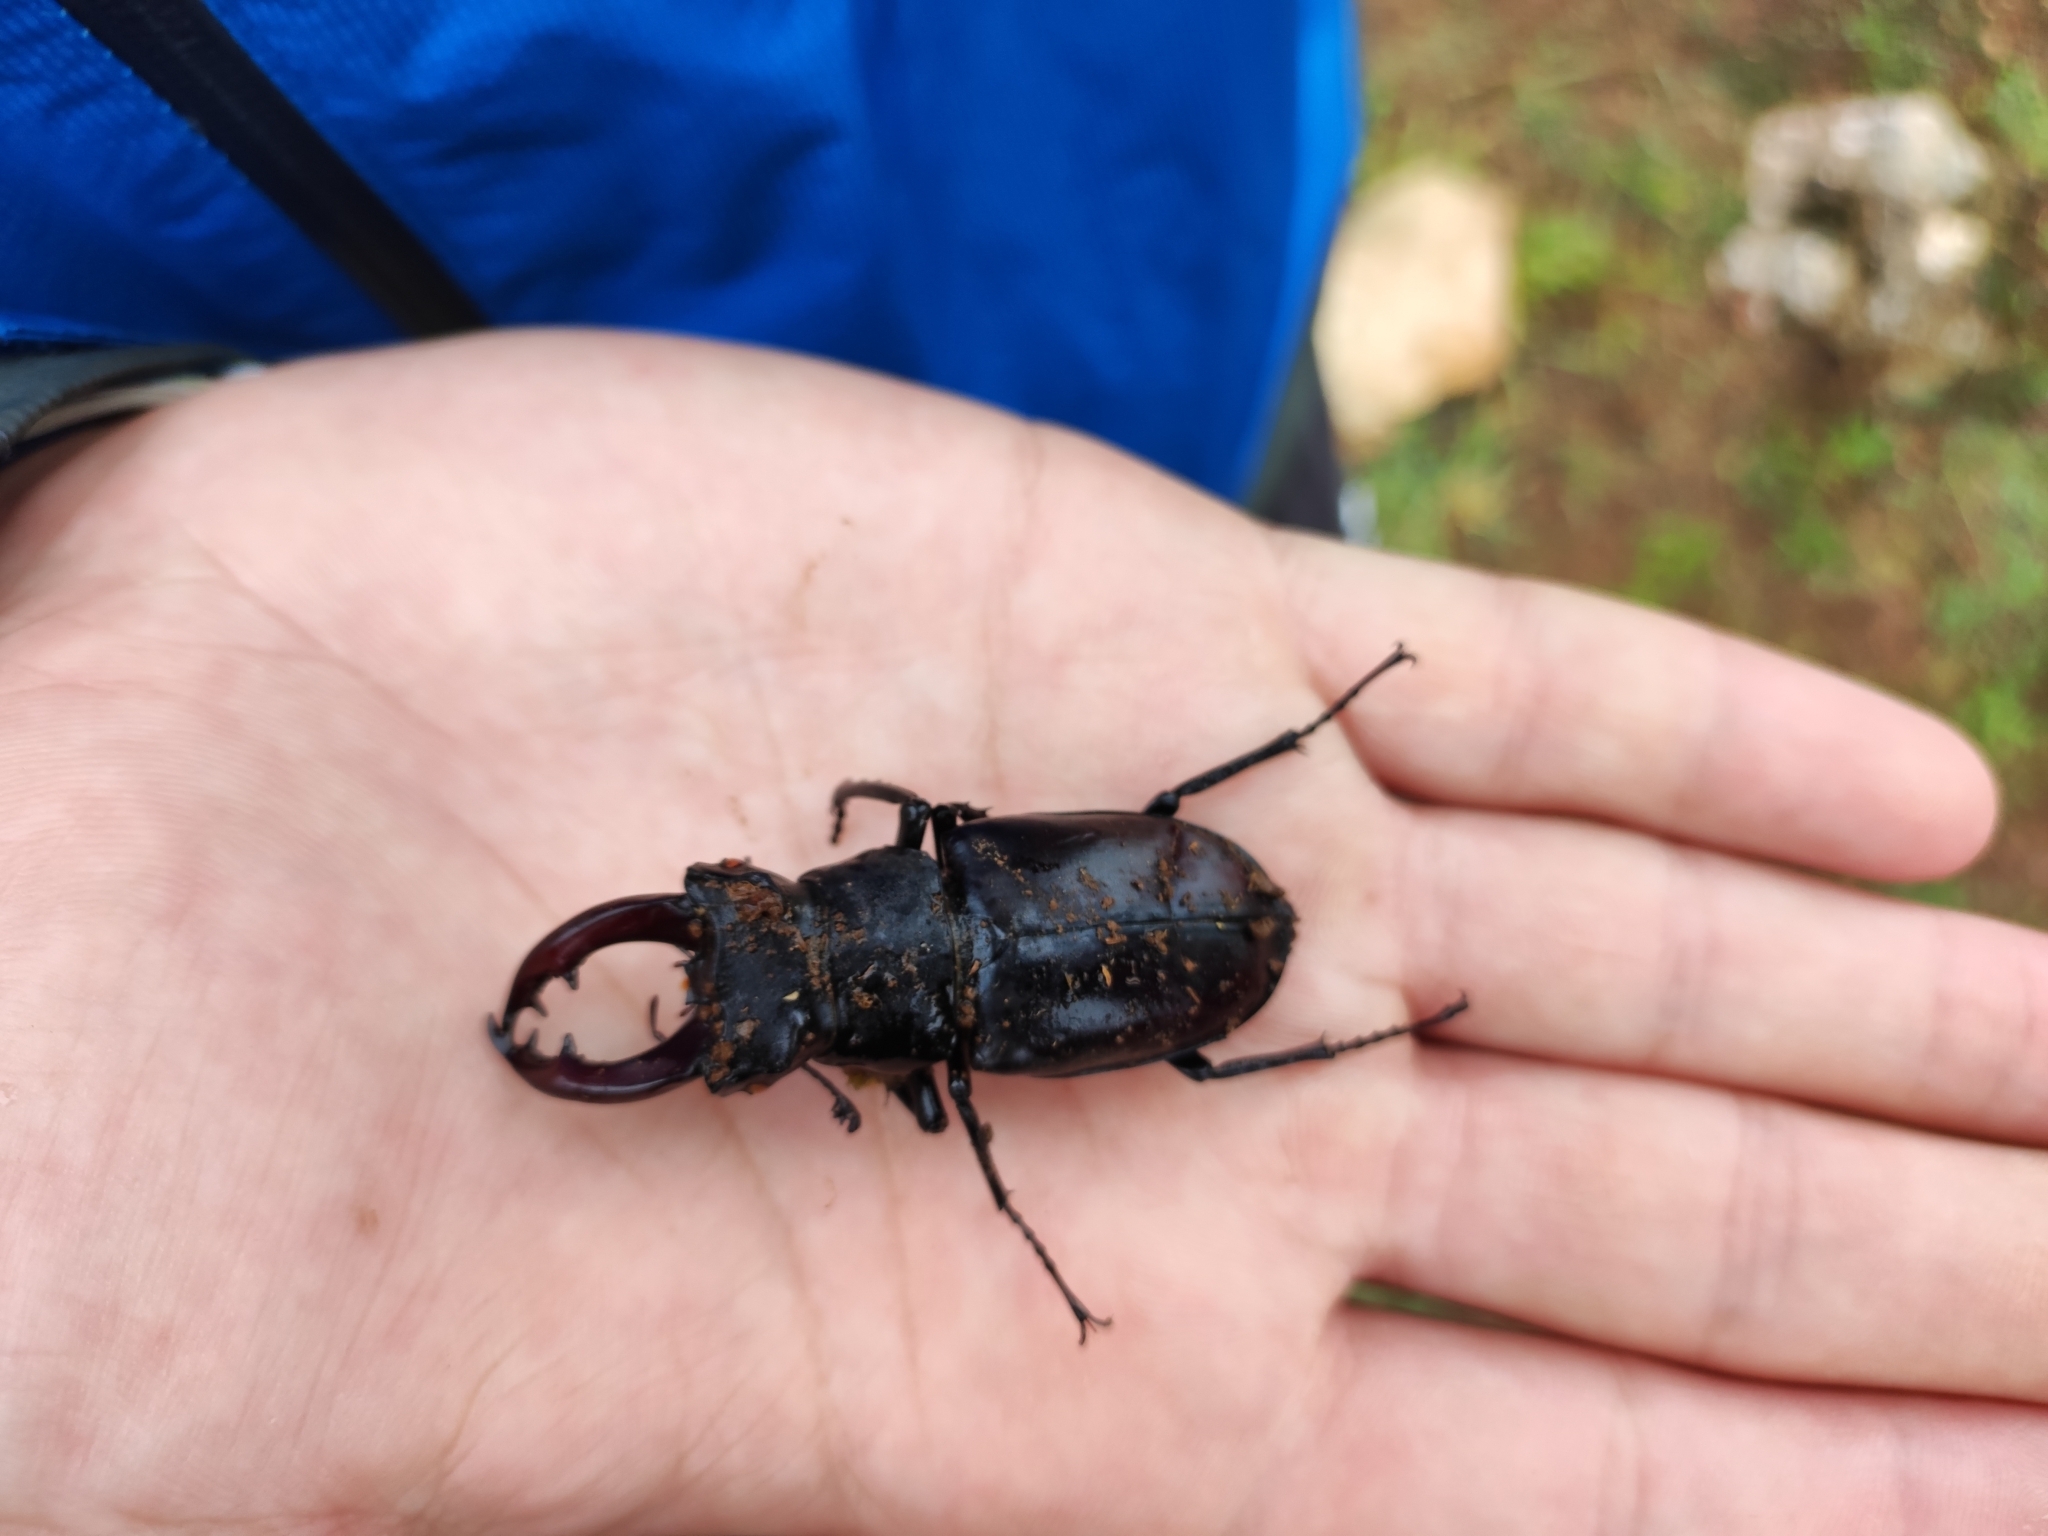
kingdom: Animalia
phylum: Arthropoda
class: Insecta
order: Coleoptera
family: Lucanidae
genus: Lucanus
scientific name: Lucanus cervus
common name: Stag beetle
